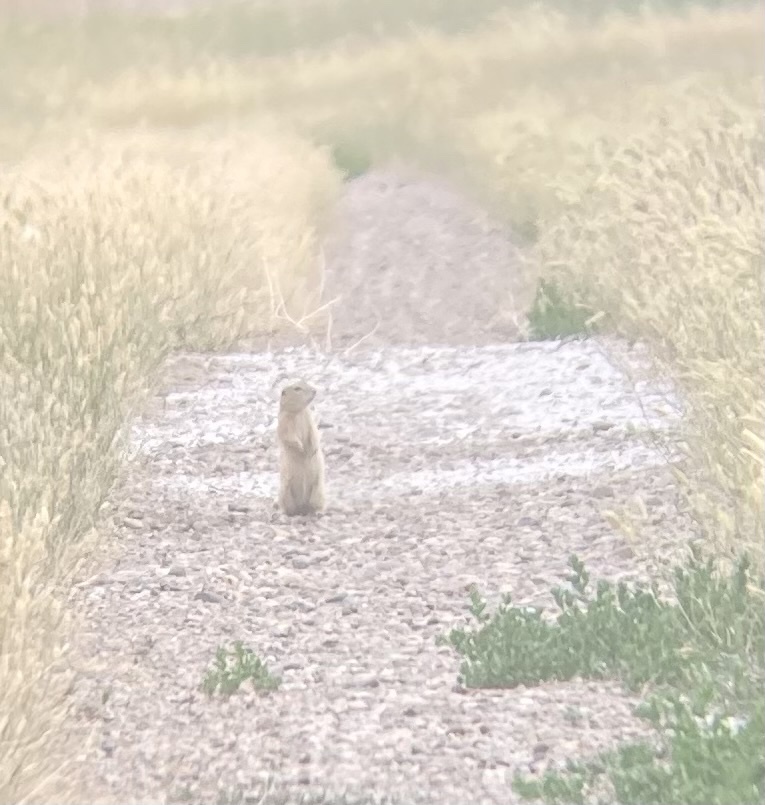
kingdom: Animalia
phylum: Chordata
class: Mammalia
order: Rodentia
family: Sciuridae
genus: Urocitellus
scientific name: Urocitellus richardsonii
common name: Richardson's ground squirrel
